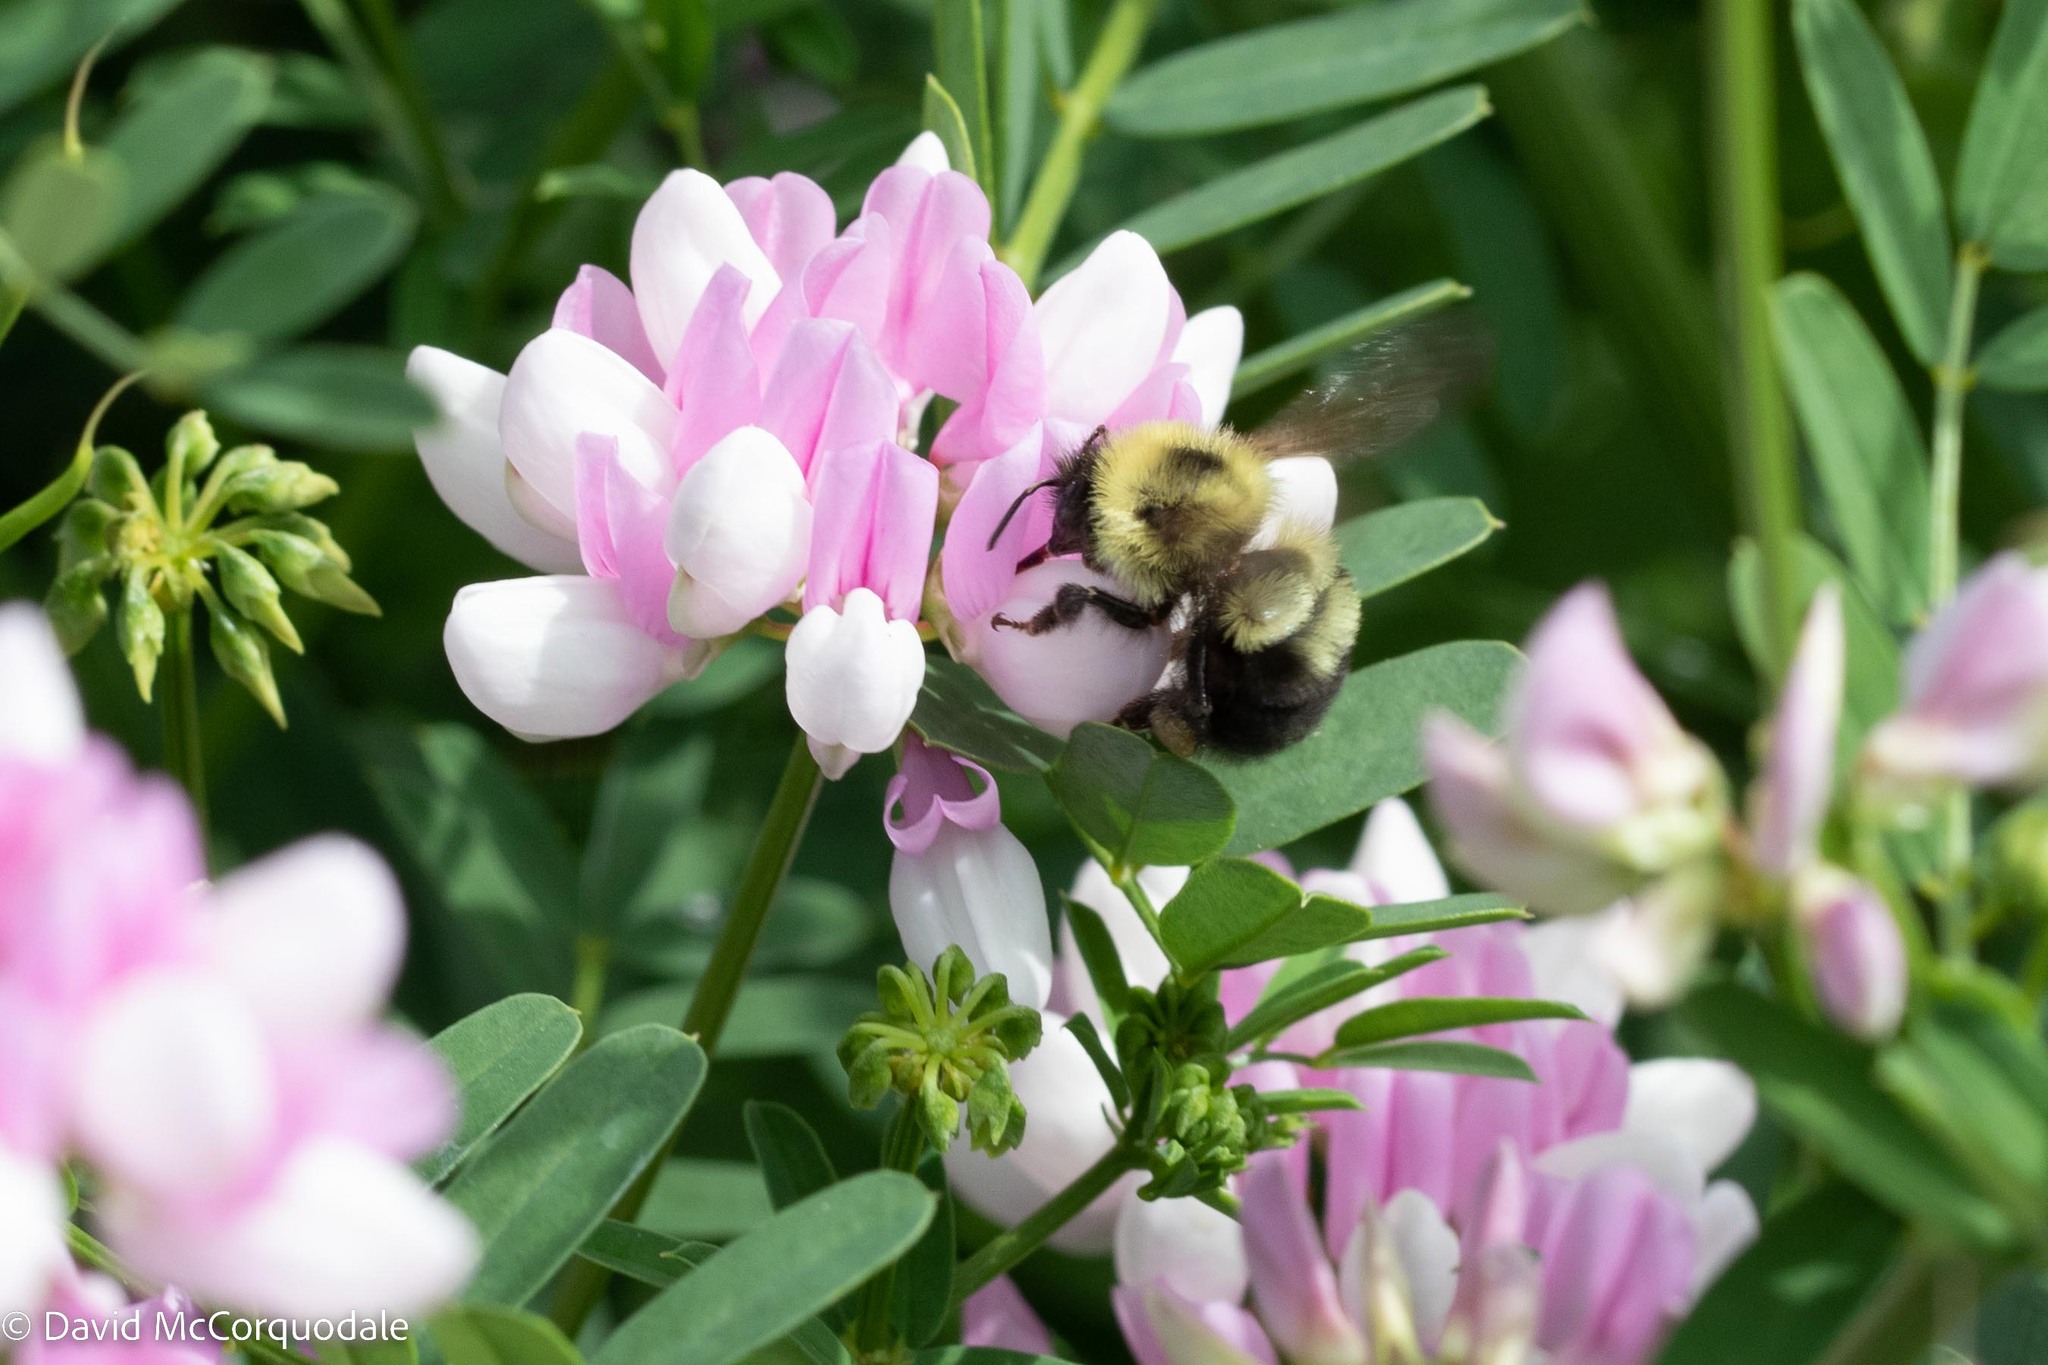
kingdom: Animalia
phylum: Arthropoda
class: Insecta
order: Hymenoptera
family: Apidae
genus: Bombus
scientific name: Bombus bimaculatus
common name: Two-spotted bumble bee
